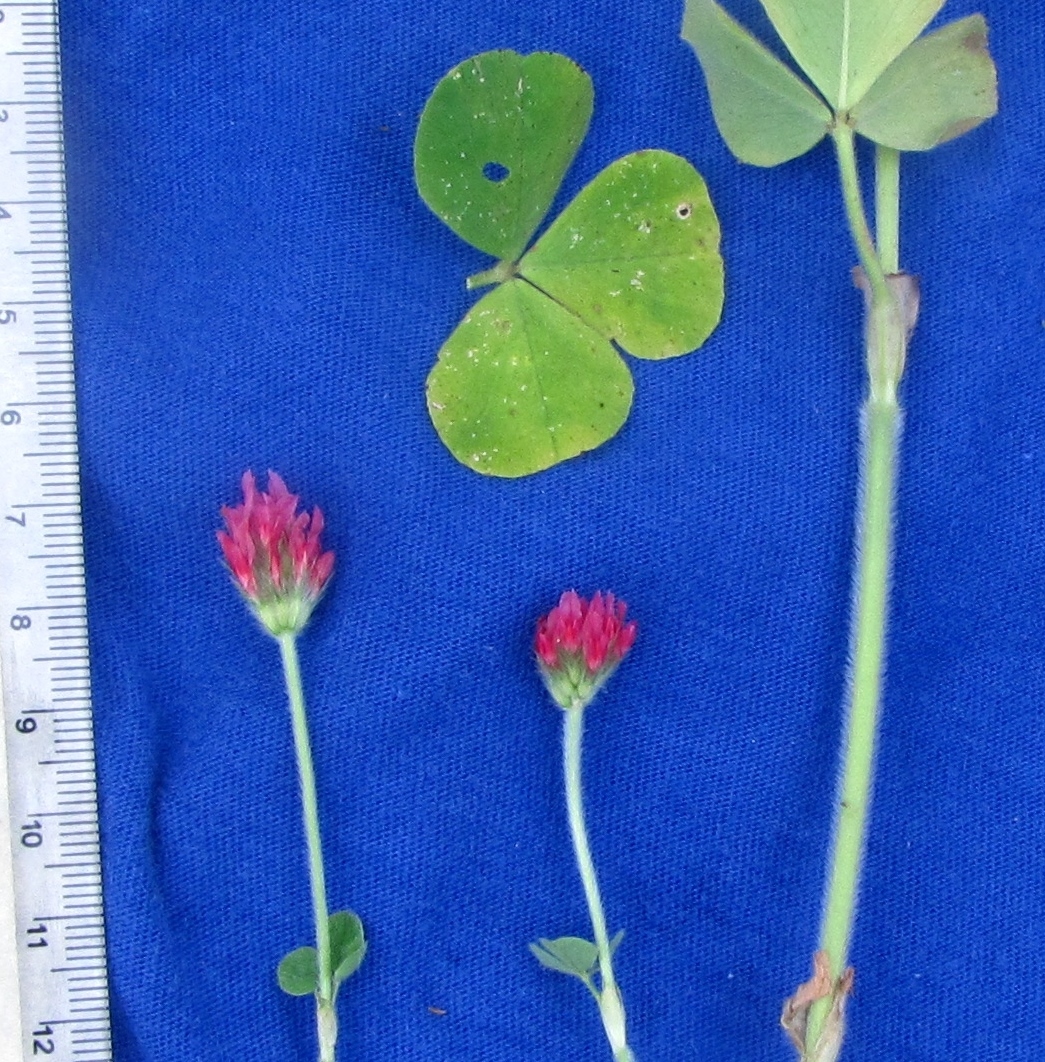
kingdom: Plantae
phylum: Tracheophyta
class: Magnoliopsida
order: Fabales
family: Fabaceae
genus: Trifolium
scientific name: Trifolium incarnatum
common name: Crimson clover
